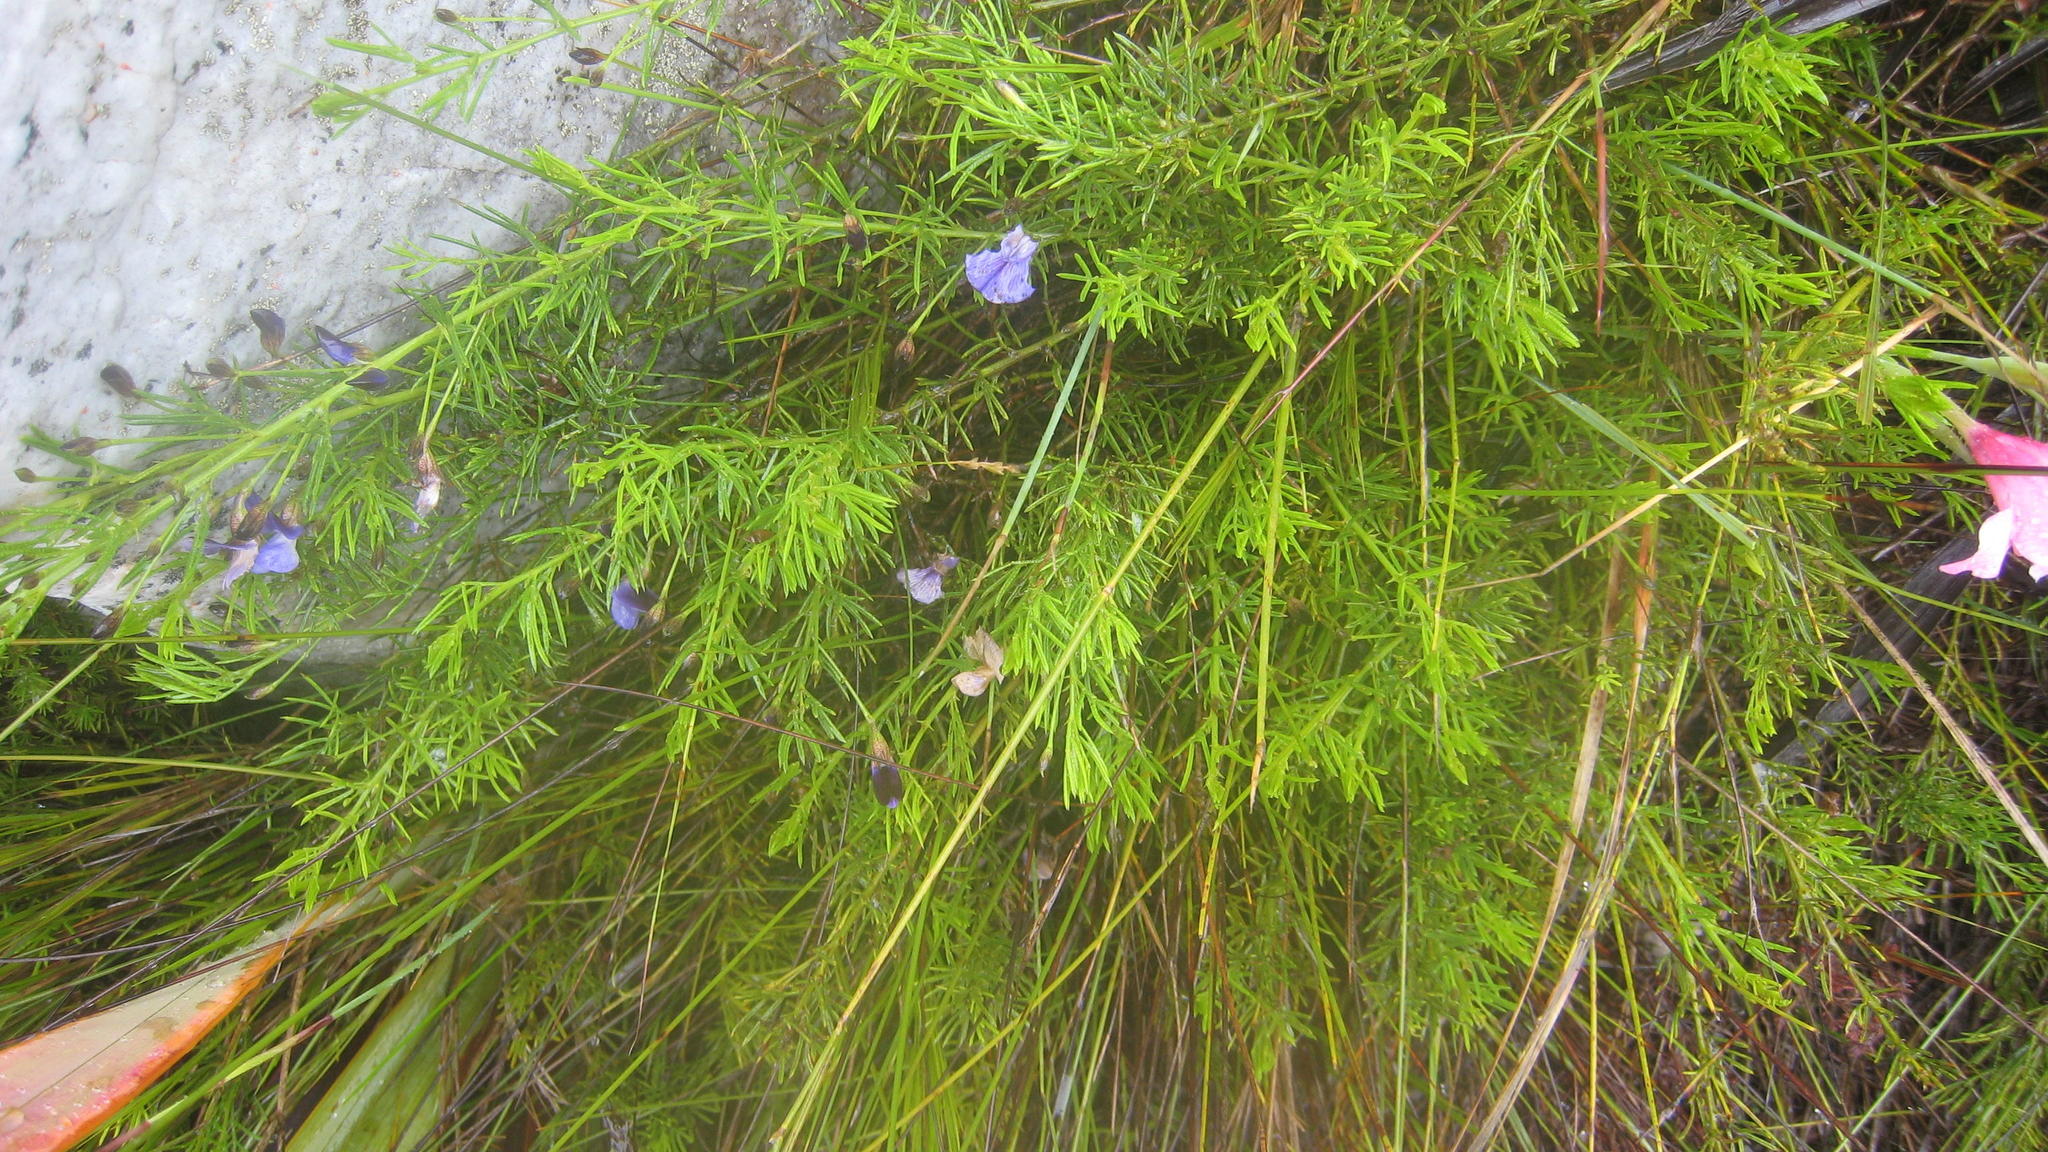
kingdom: Plantae
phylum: Tracheophyta
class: Magnoliopsida
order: Fabales
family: Fabaceae
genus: Psoralea
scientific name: Psoralea laevigata
